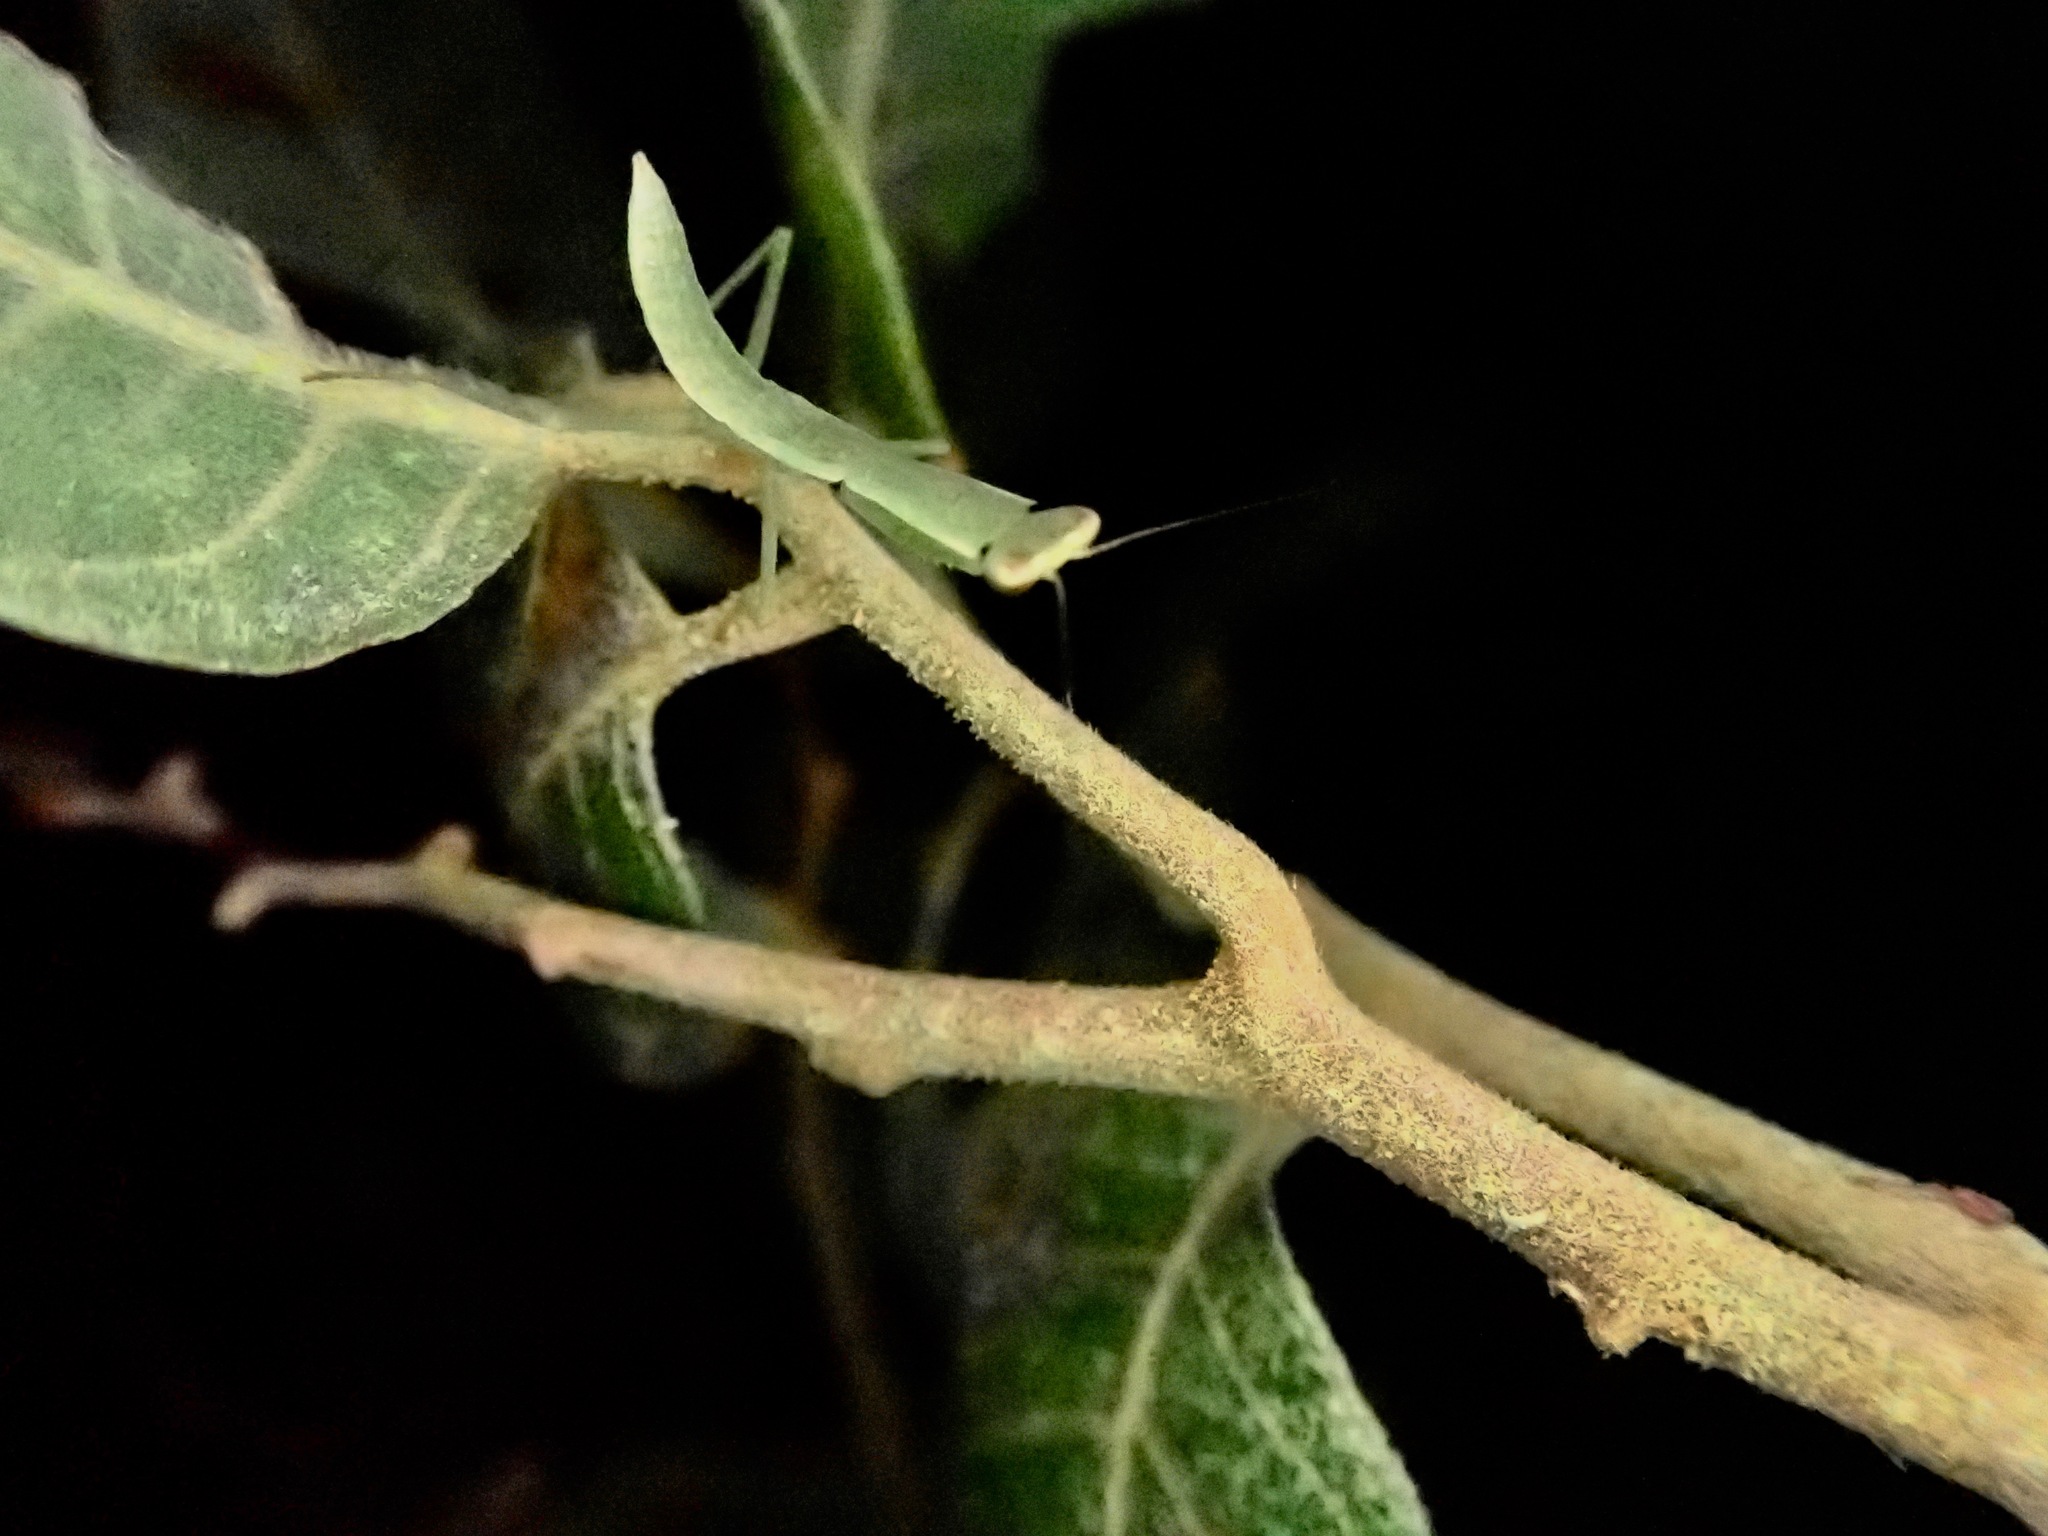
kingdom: Animalia
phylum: Arthropoda
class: Insecta
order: Mantodea
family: Mantidae
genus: Orthodera
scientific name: Orthodera novaezealandiae
